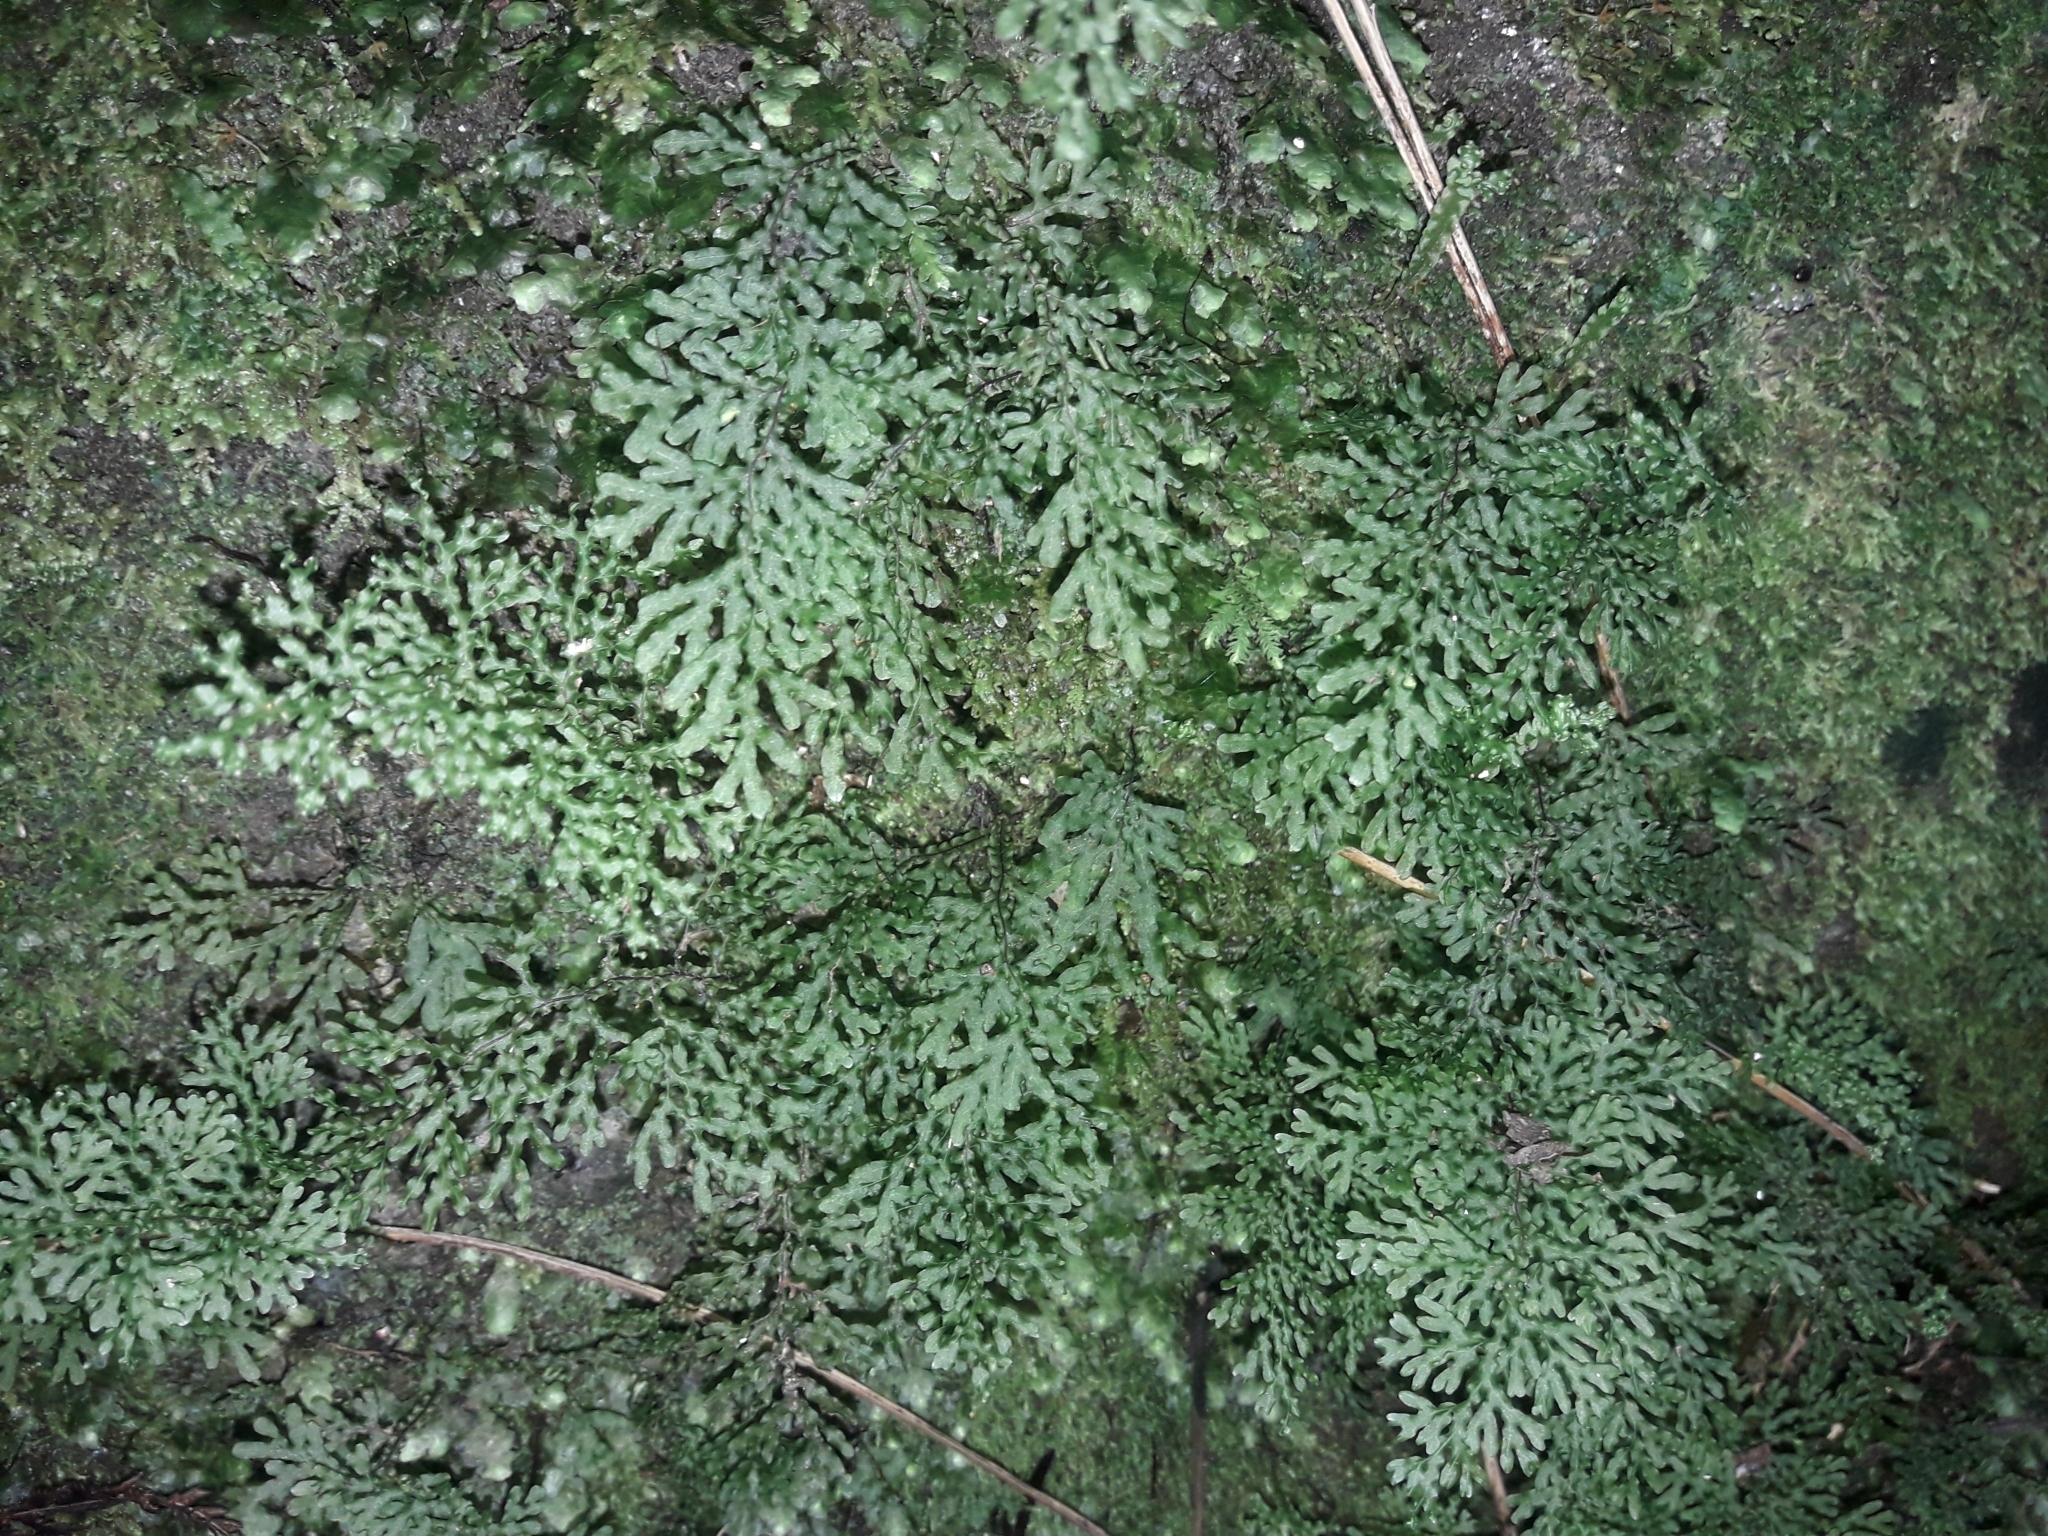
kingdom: Plantae
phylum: Tracheophyta
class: Polypodiopsida
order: Hymenophyllales
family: Hymenophyllaceae
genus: Hymenophyllum
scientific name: Hymenophyllum flexuosum
